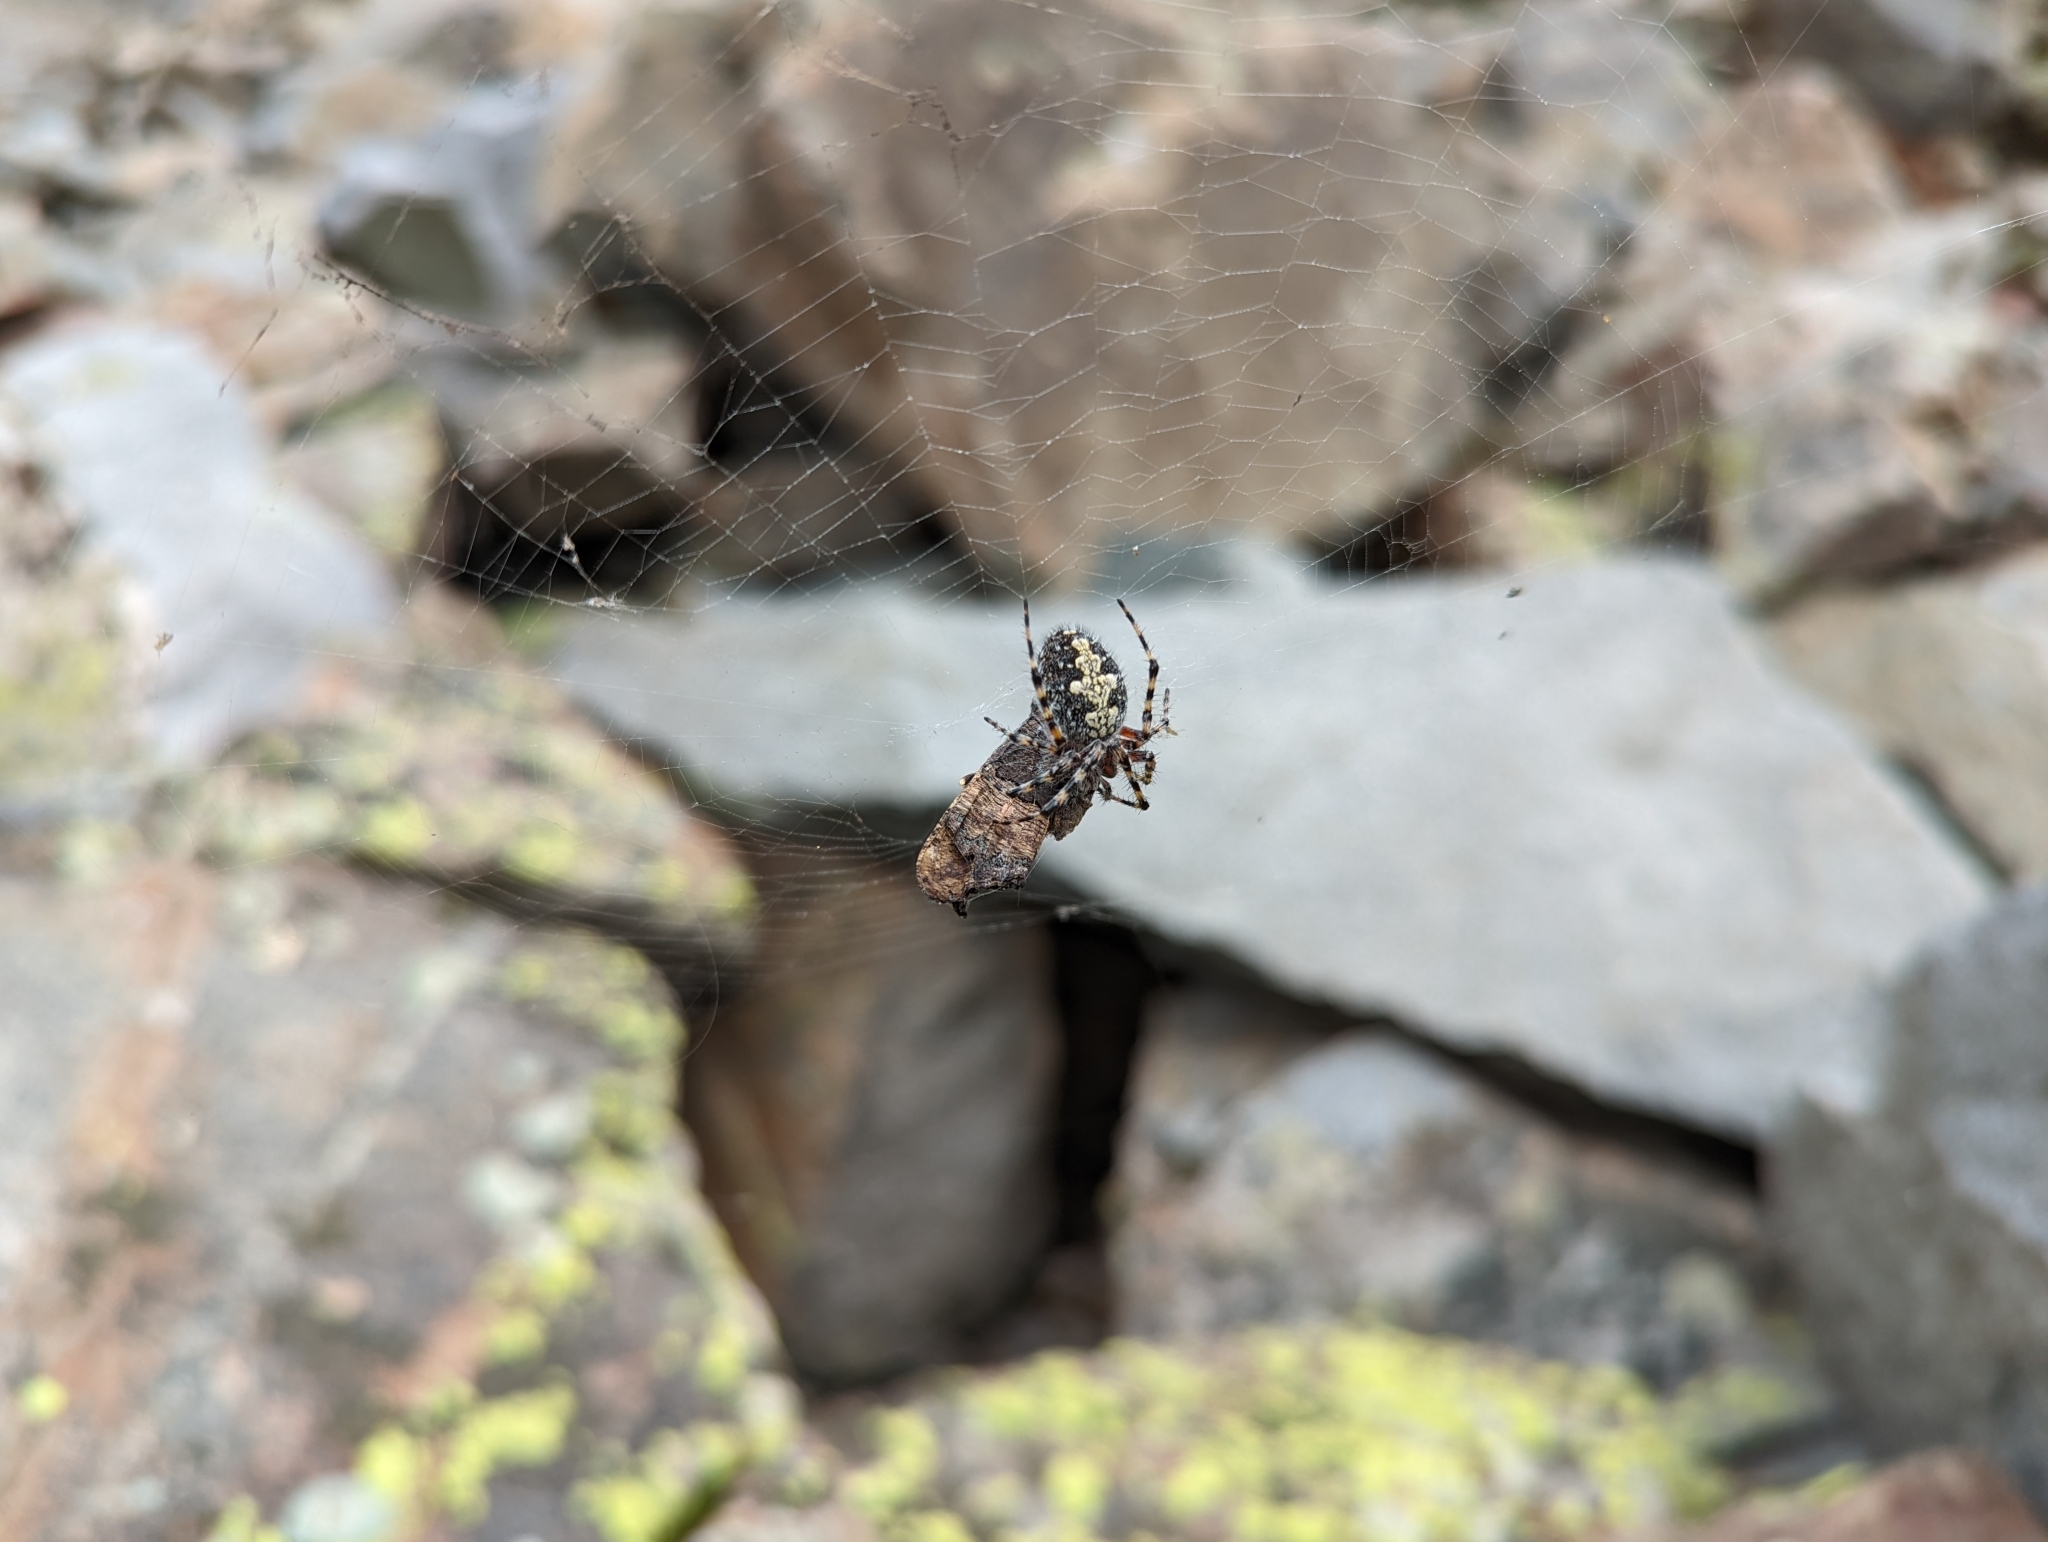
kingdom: Animalia
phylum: Arthropoda
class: Arachnida
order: Araneae
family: Araneidae
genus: Aculepeira
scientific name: Aculepeira carbonarioides
